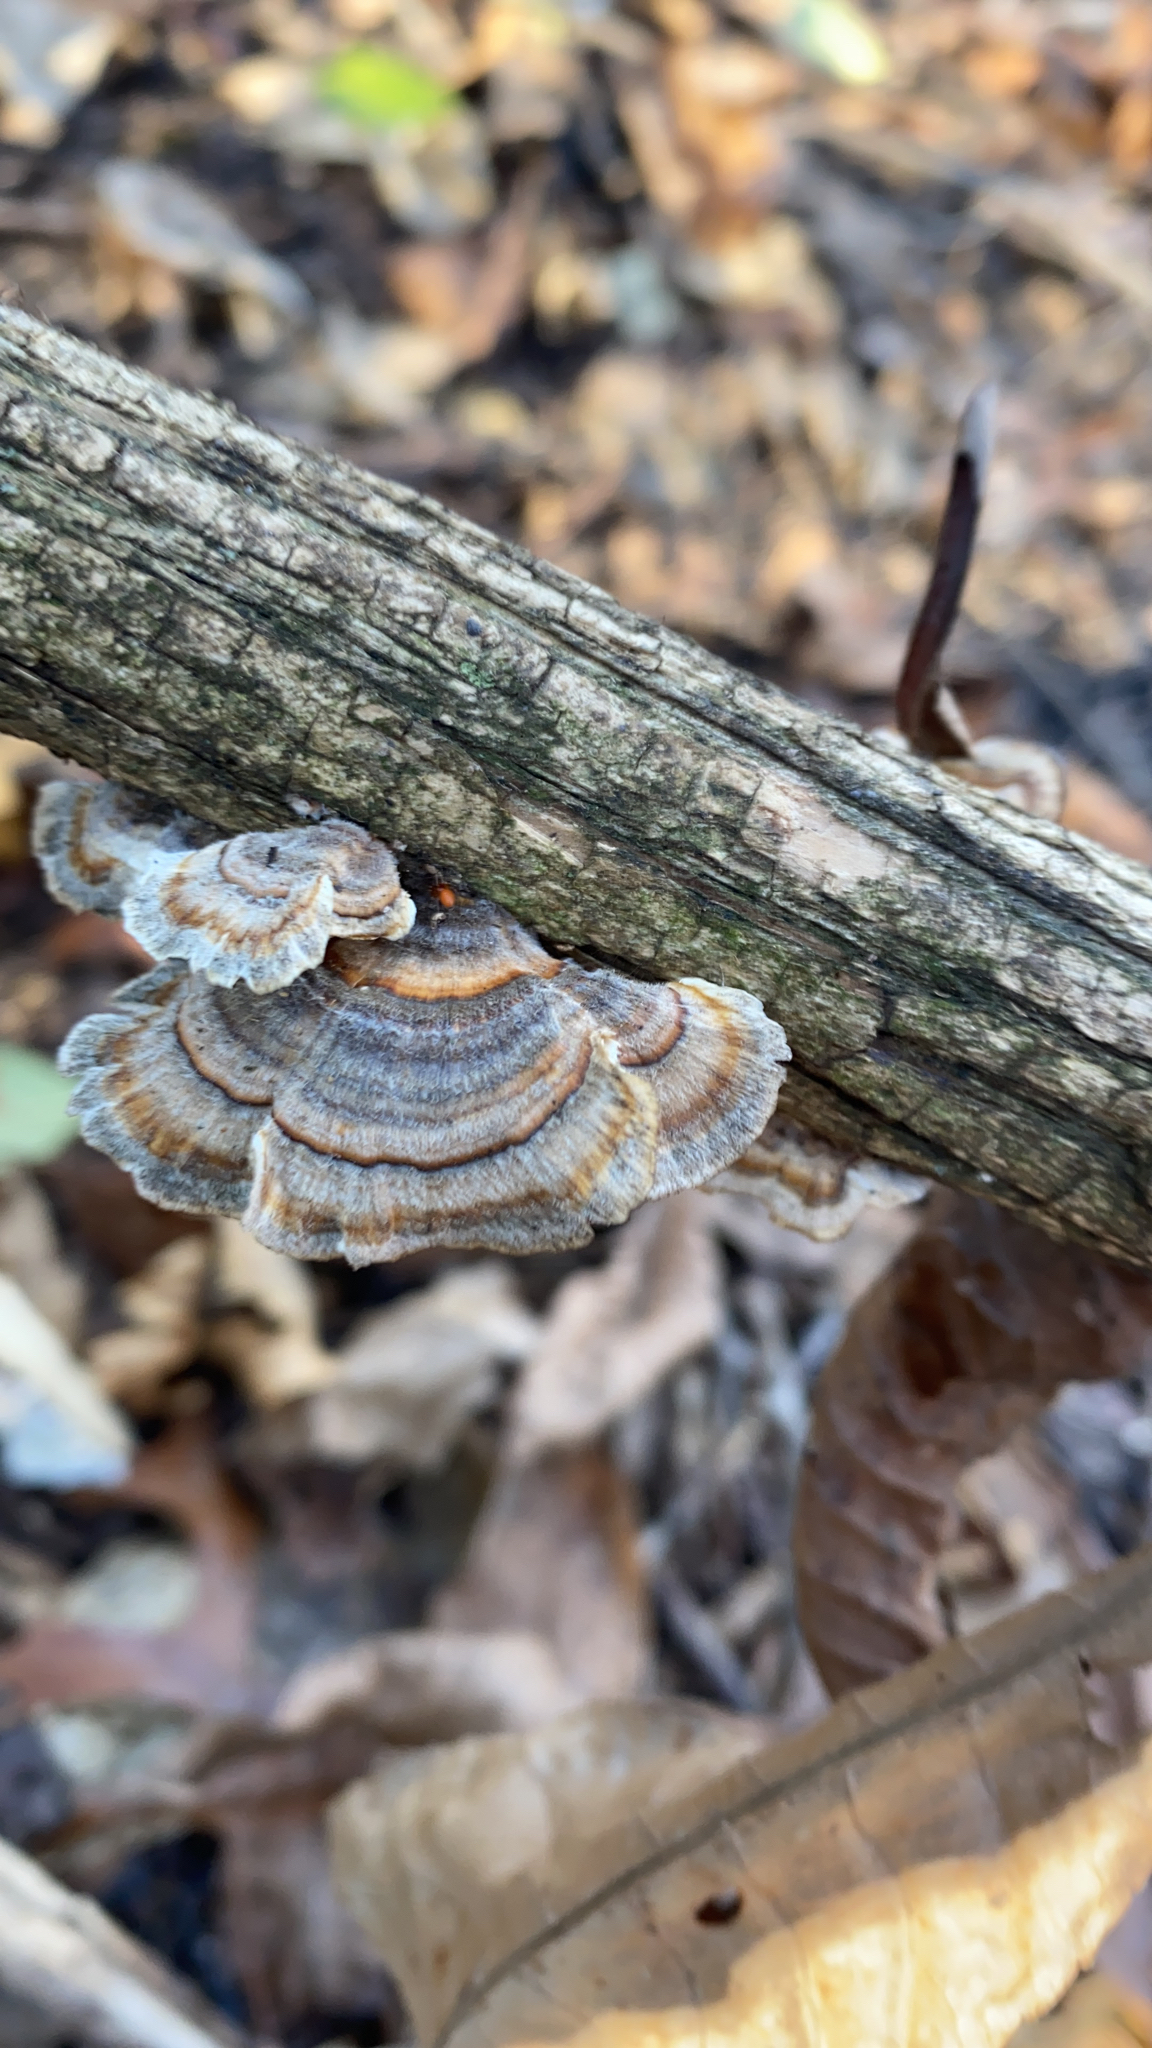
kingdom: Fungi
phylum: Basidiomycota
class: Agaricomycetes
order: Polyporales
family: Polyporaceae
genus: Trametes
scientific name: Trametes versicolor
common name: Turkeytail
